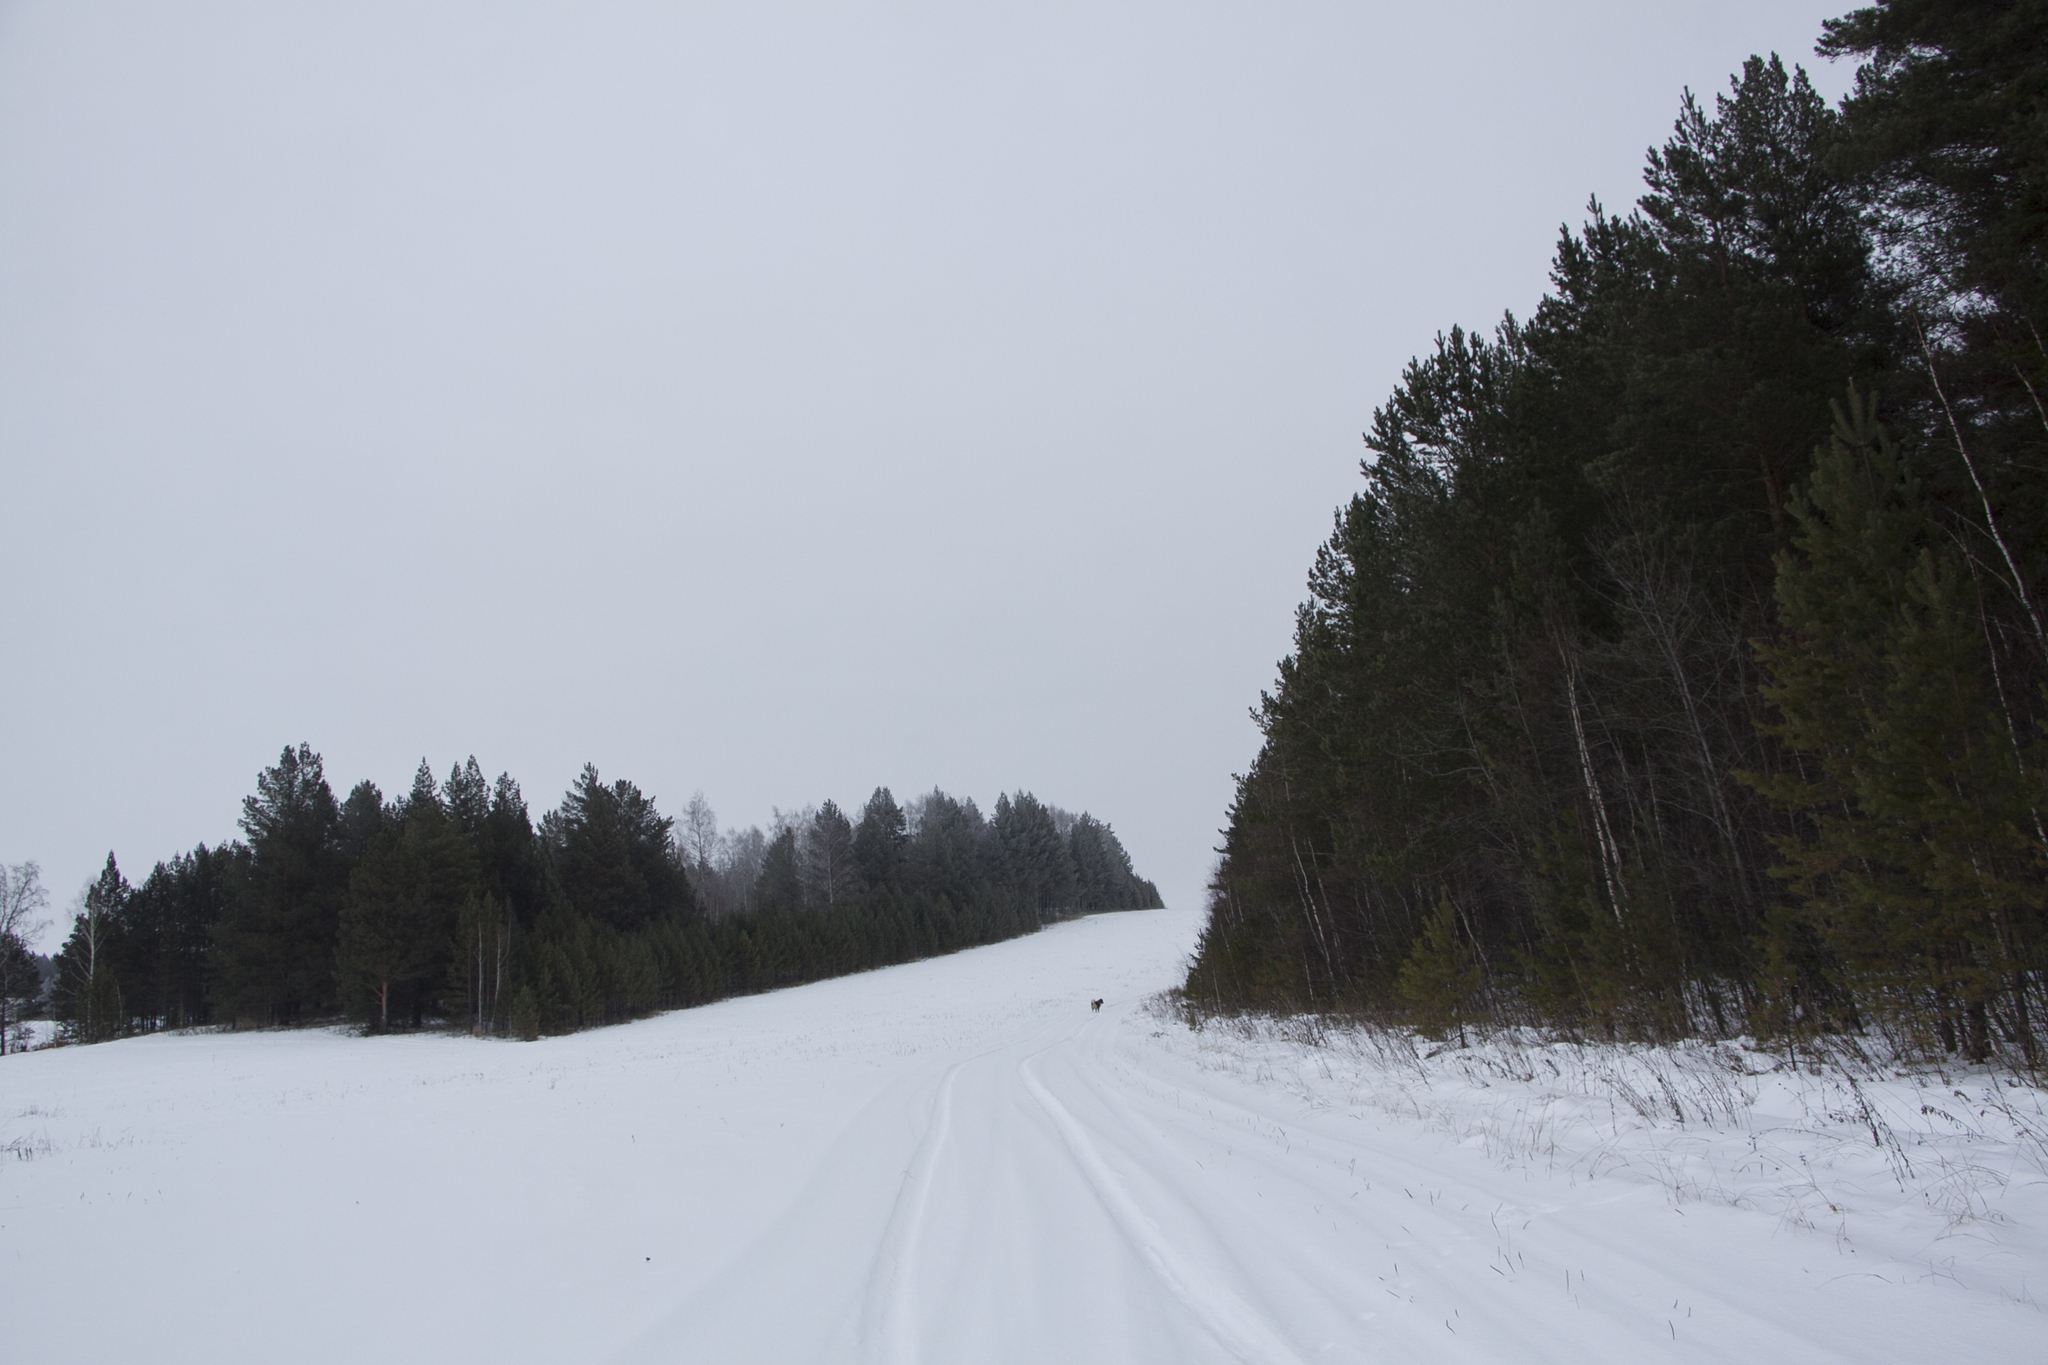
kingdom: Plantae
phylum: Tracheophyta
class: Pinopsida
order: Pinales
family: Pinaceae
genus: Pinus
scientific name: Pinus sylvestris
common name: Scots pine
